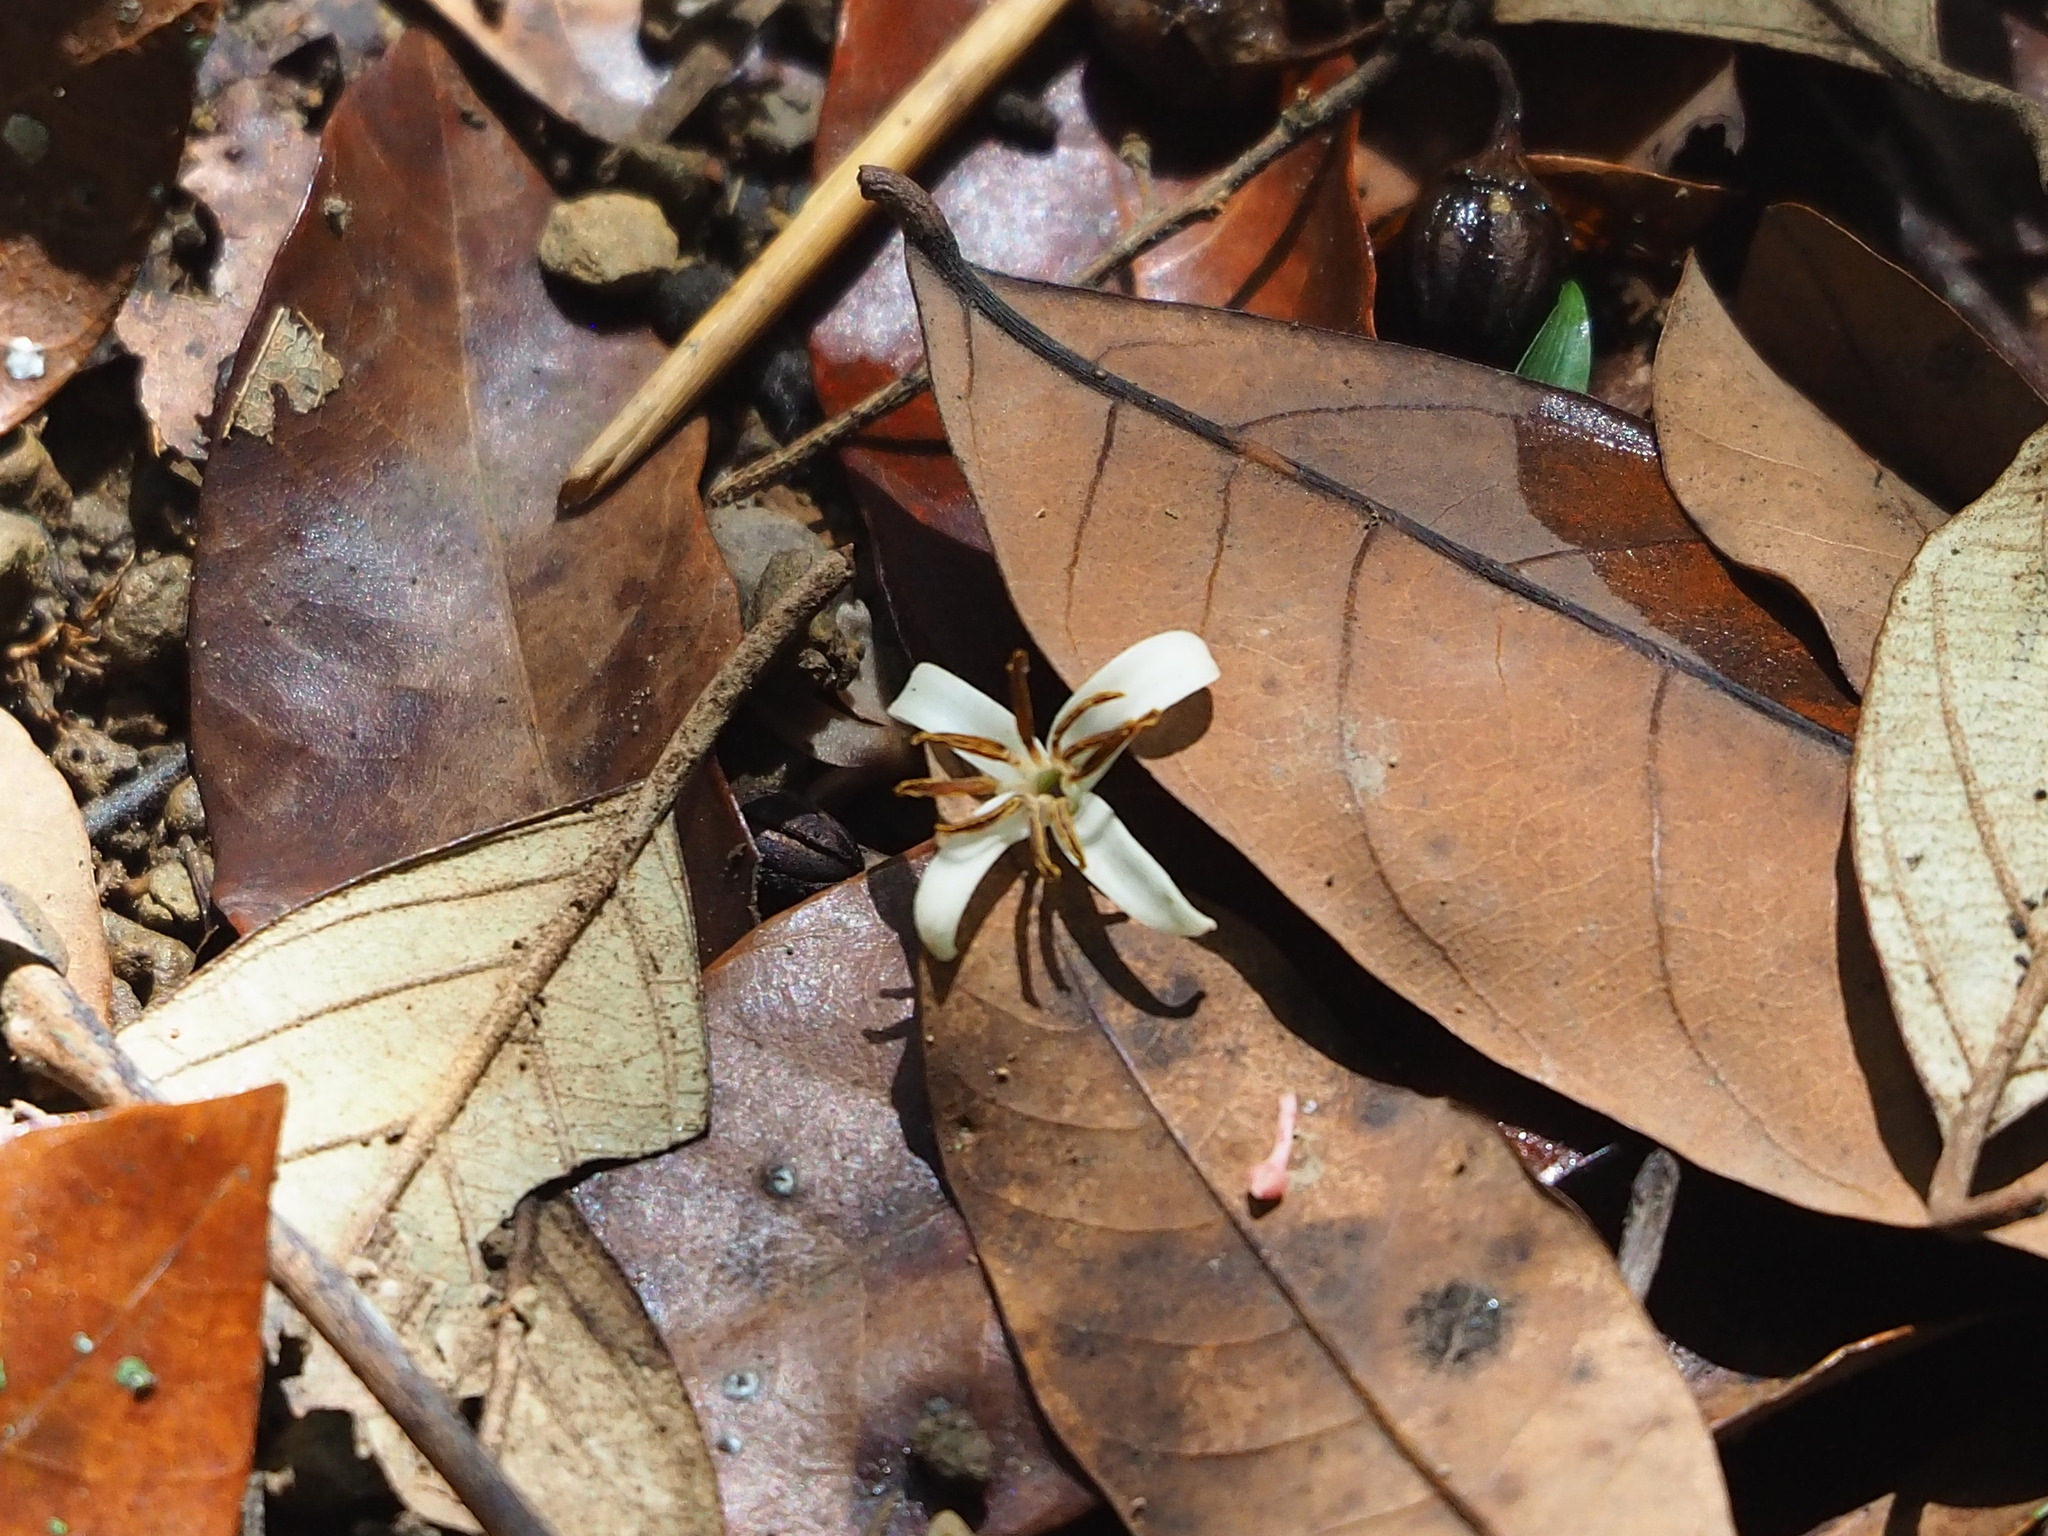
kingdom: Plantae
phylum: Tracheophyta
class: Magnoliopsida
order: Ericales
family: Styracaceae
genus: Styrax
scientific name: Styrax suberifolius
